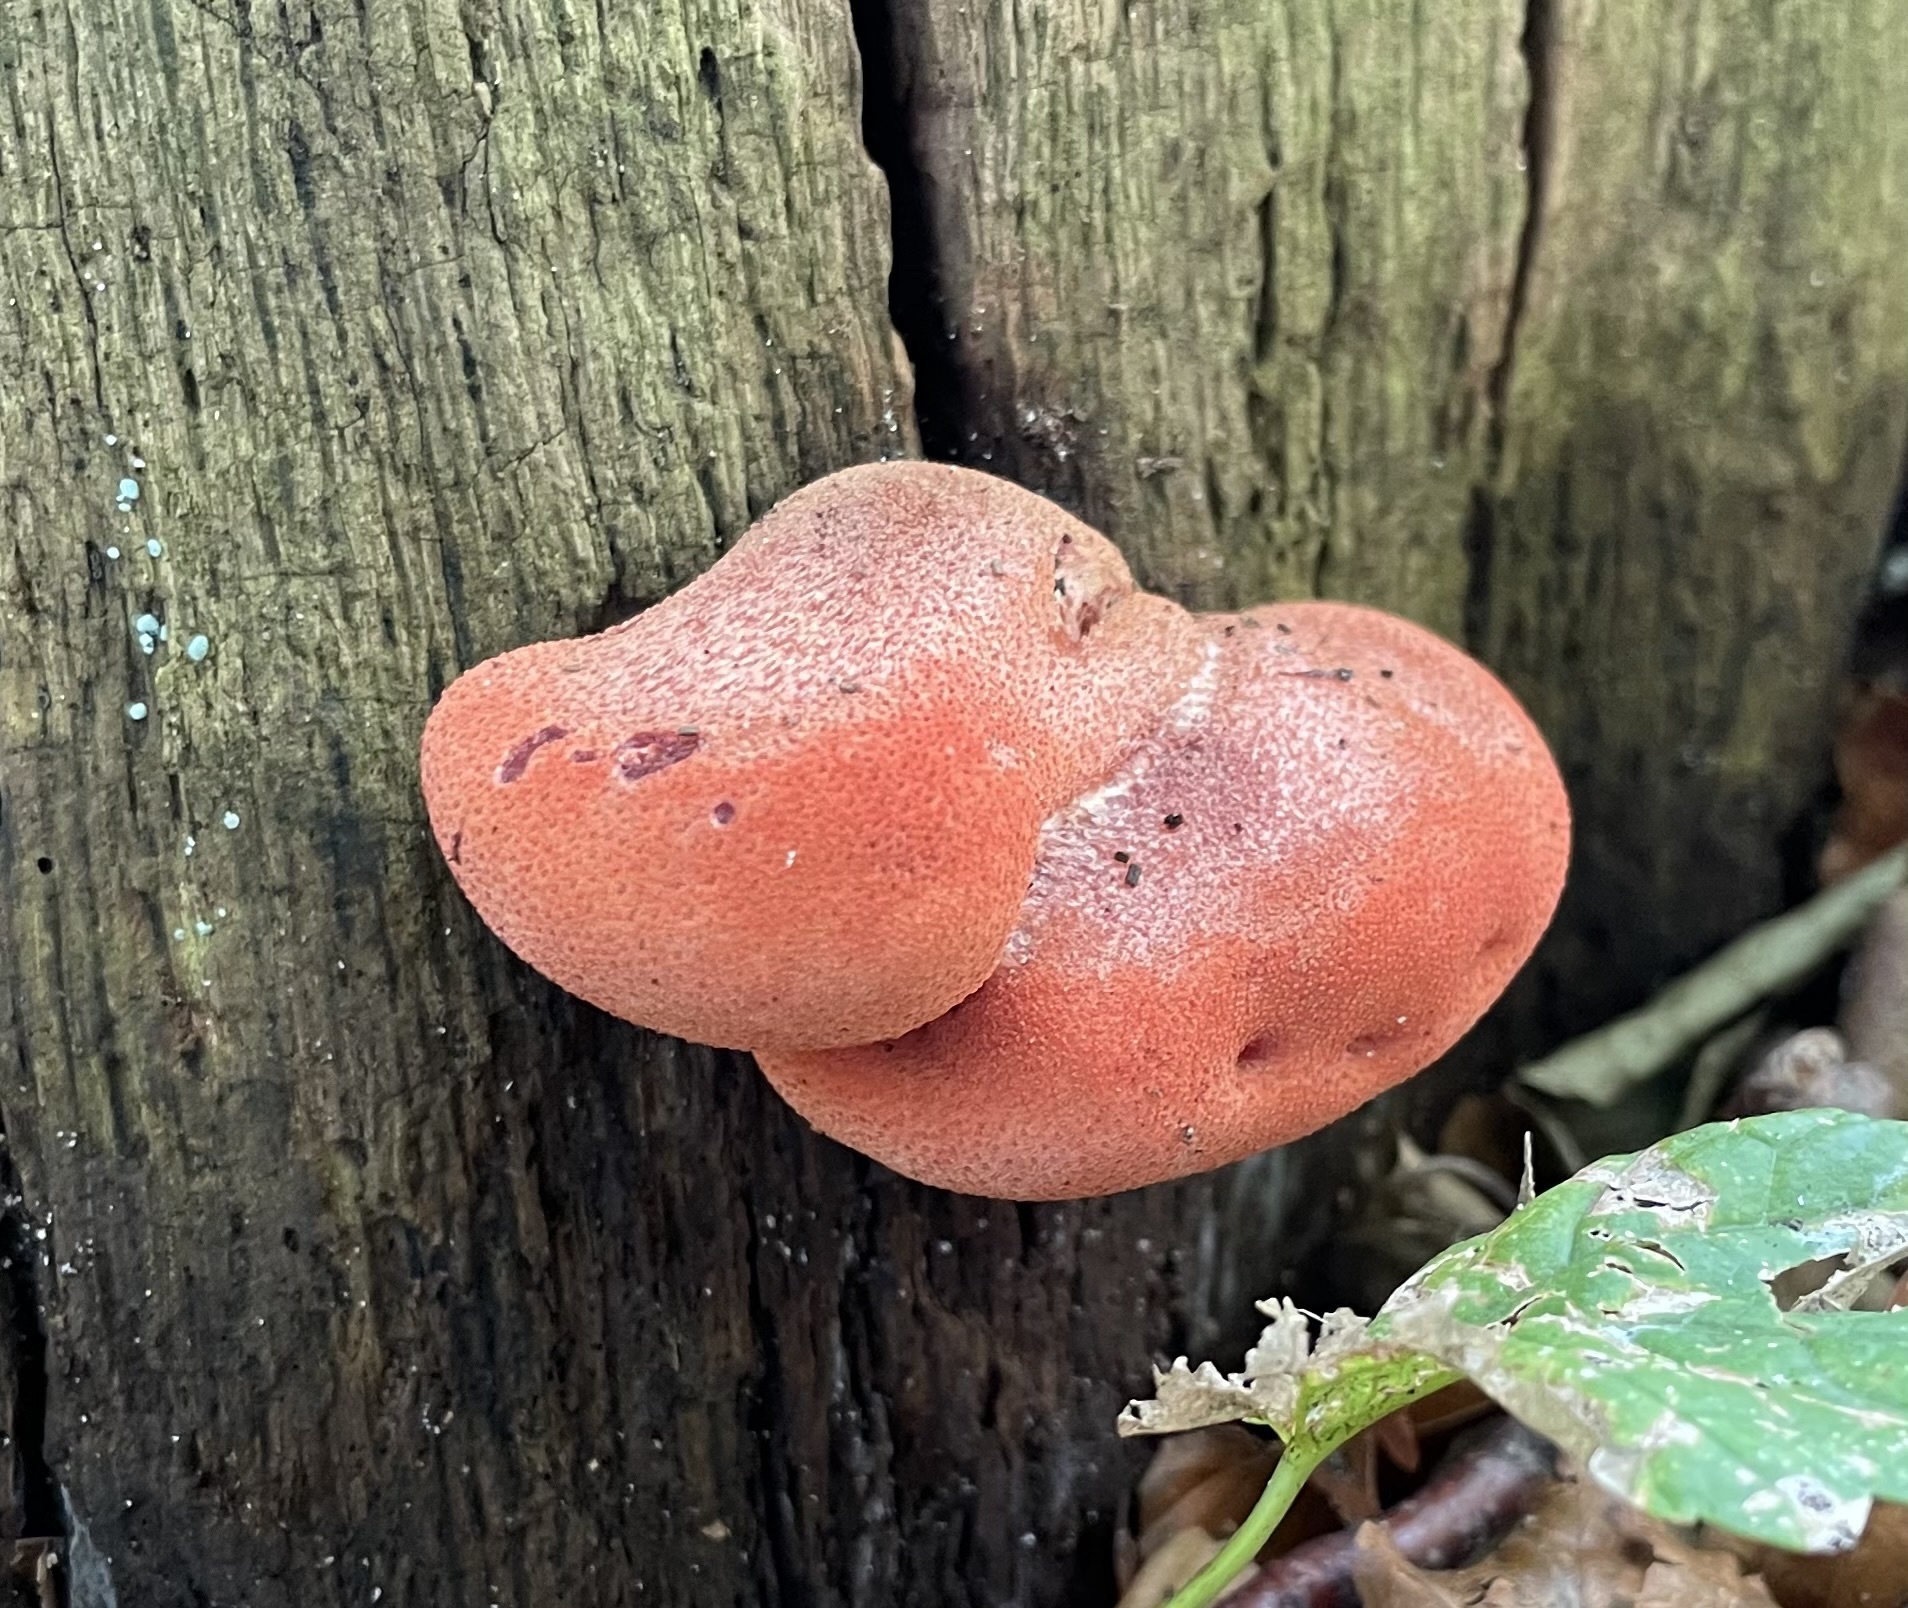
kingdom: Fungi
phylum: Basidiomycota
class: Agaricomycetes
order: Agaricales
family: Fistulinaceae
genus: Fistulina
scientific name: Fistulina hepatica
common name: Beef-steak fungus
